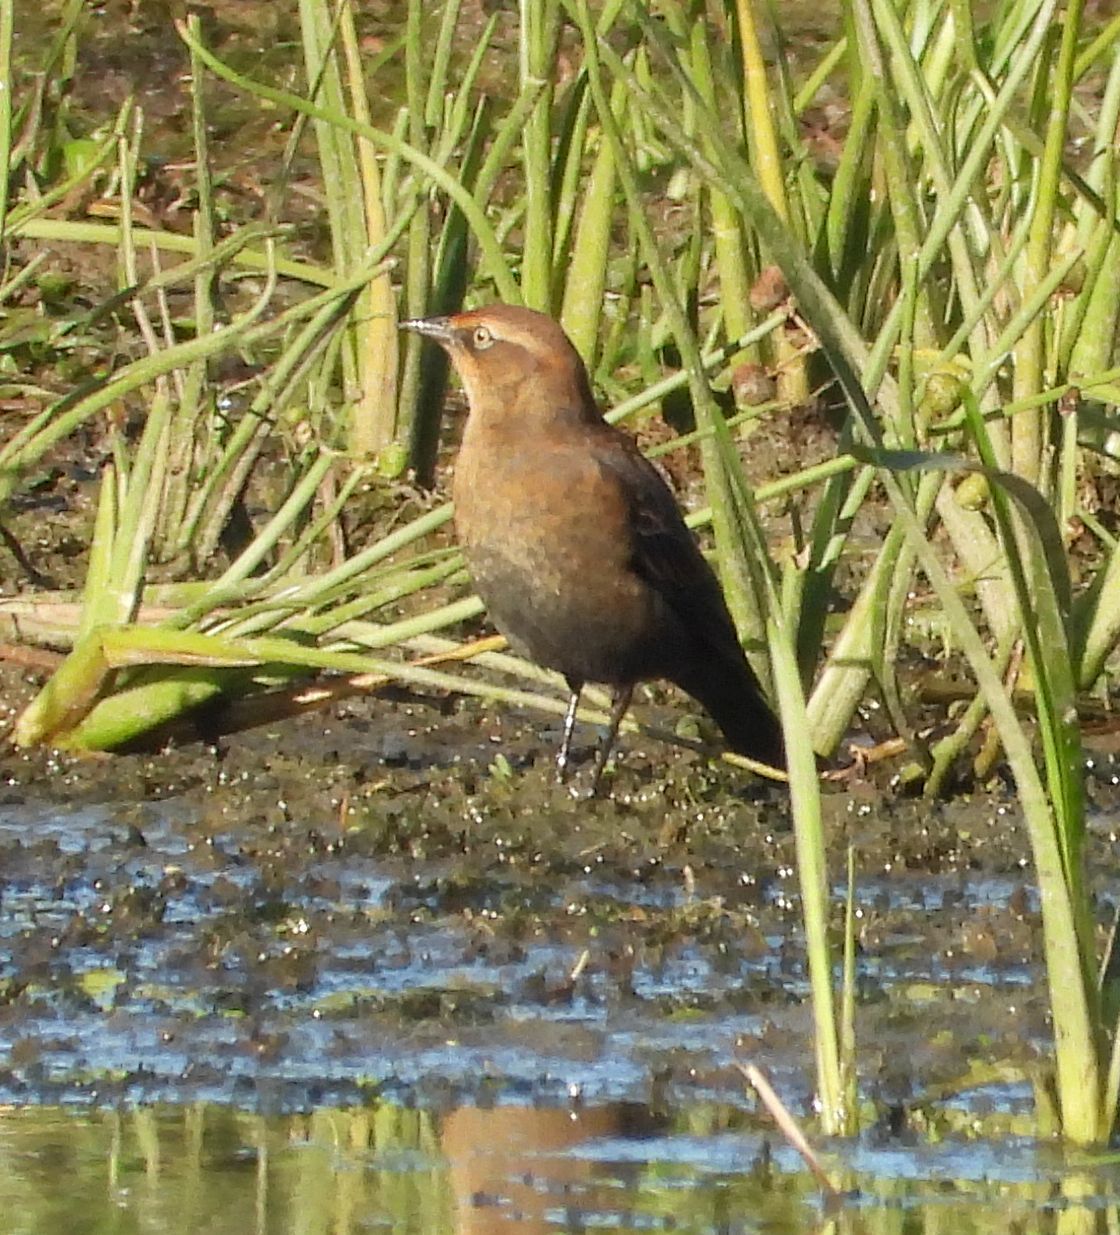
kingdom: Animalia
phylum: Chordata
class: Aves
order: Passeriformes
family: Icteridae
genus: Euphagus
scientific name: Euphagus carolinus
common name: Rusty blackbird
